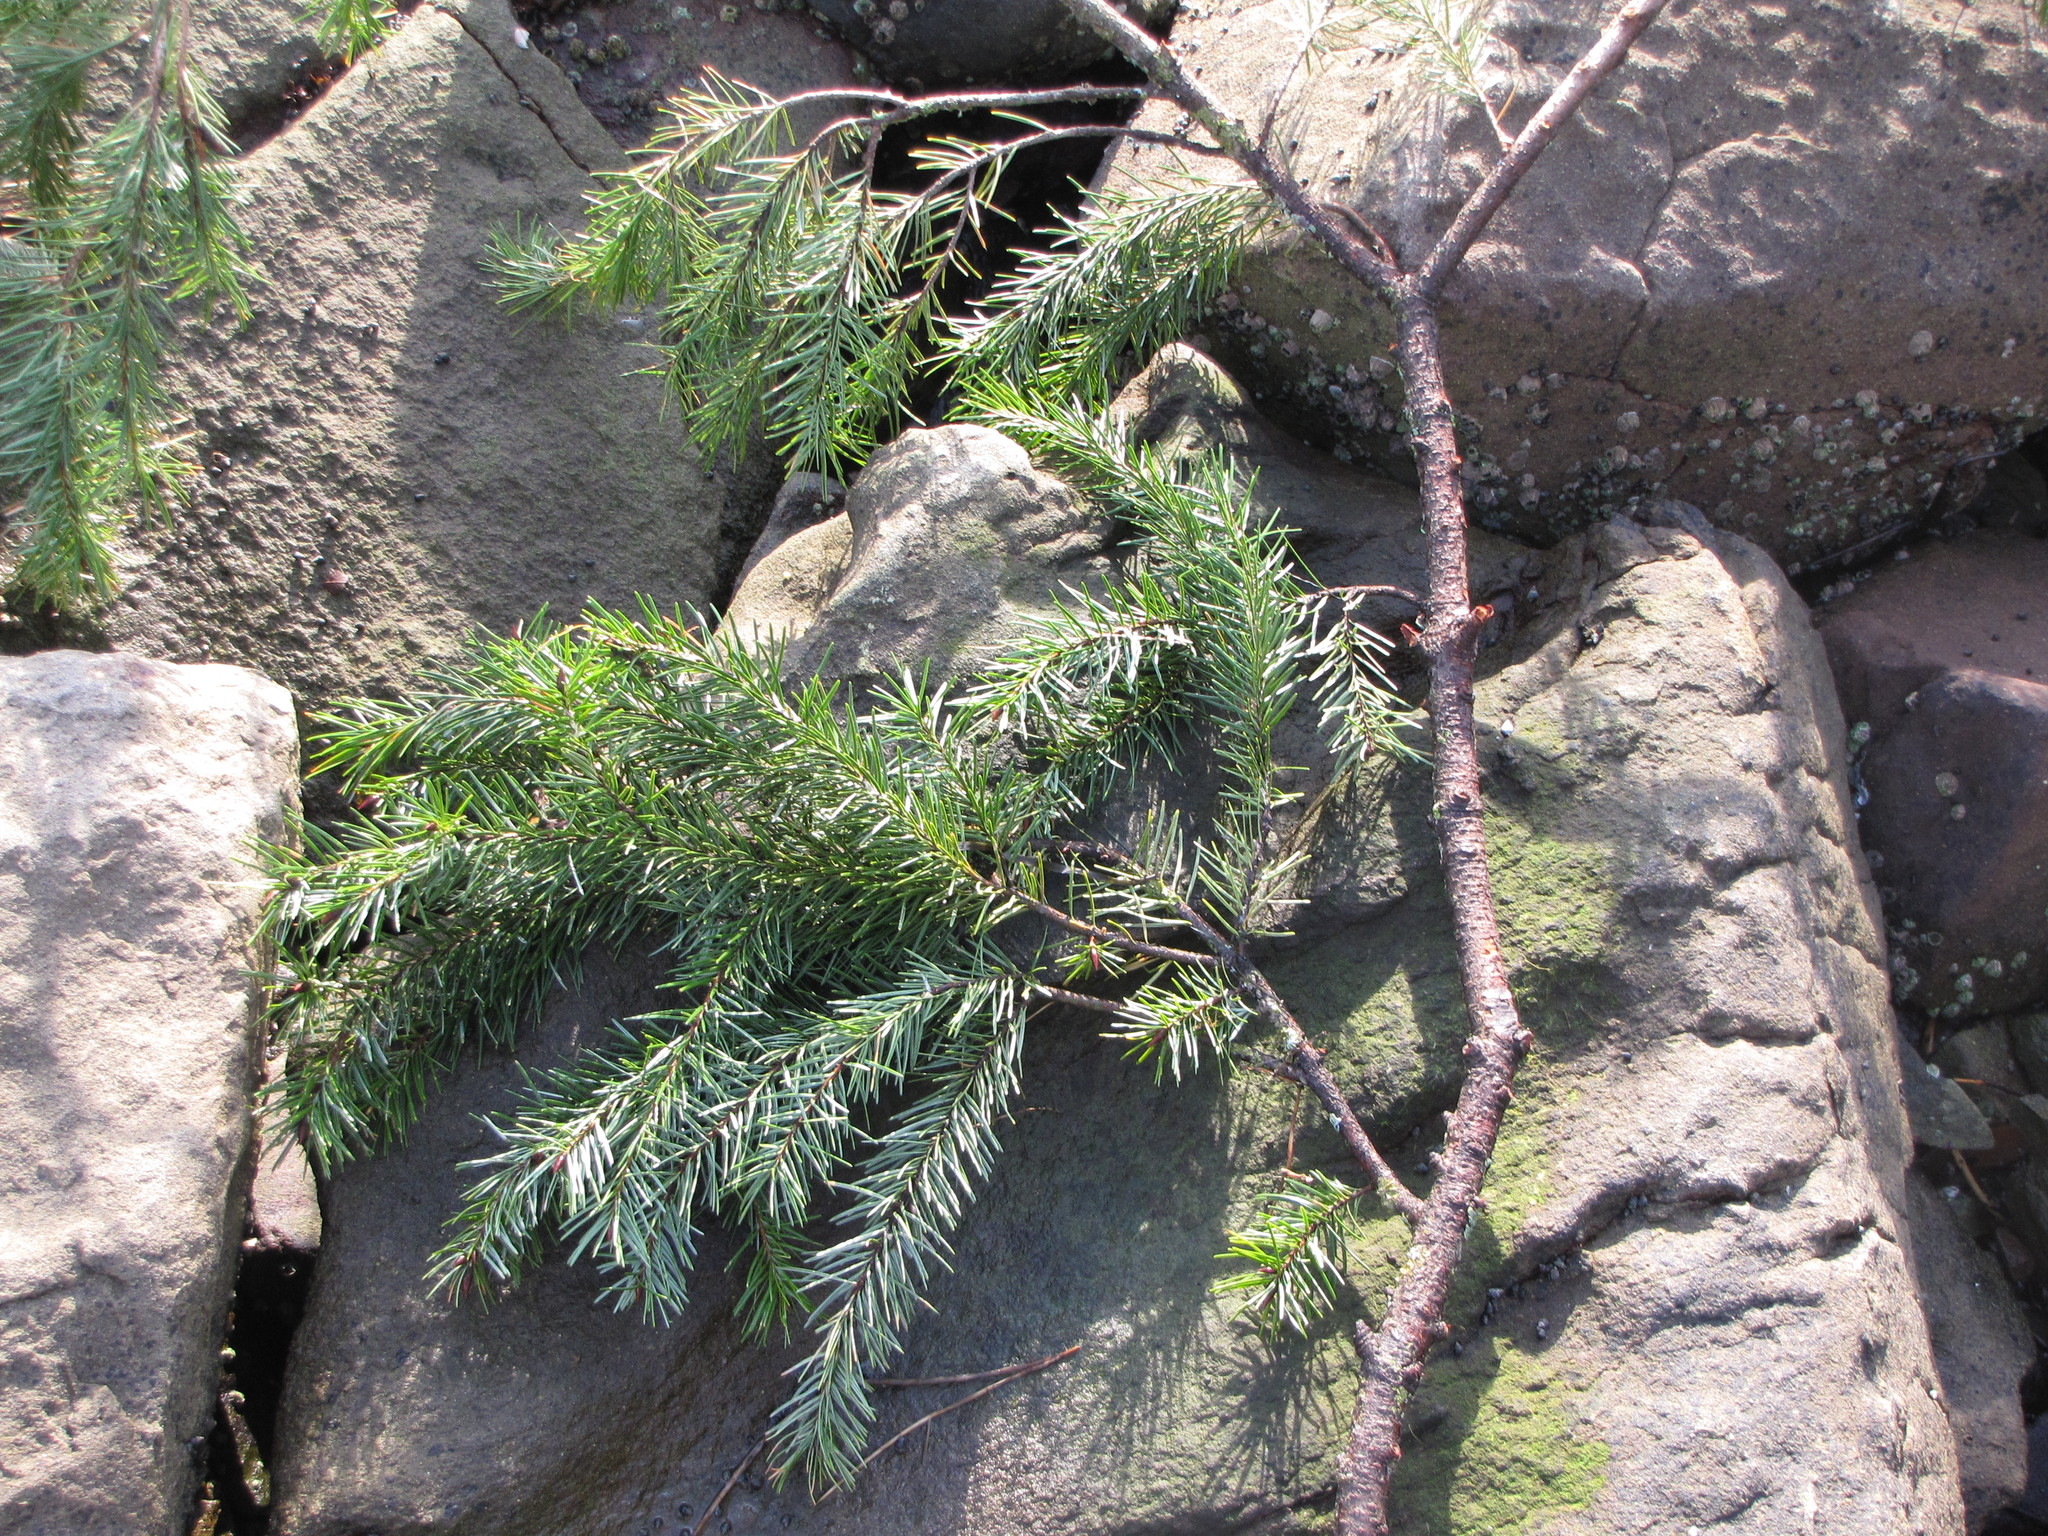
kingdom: Plantae
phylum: Tracheophyta
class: Pinopsida
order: Pinales
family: Pinaceae
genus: Pseudotsuga
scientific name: Pseudotsuga menziesii
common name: Douglas fir
